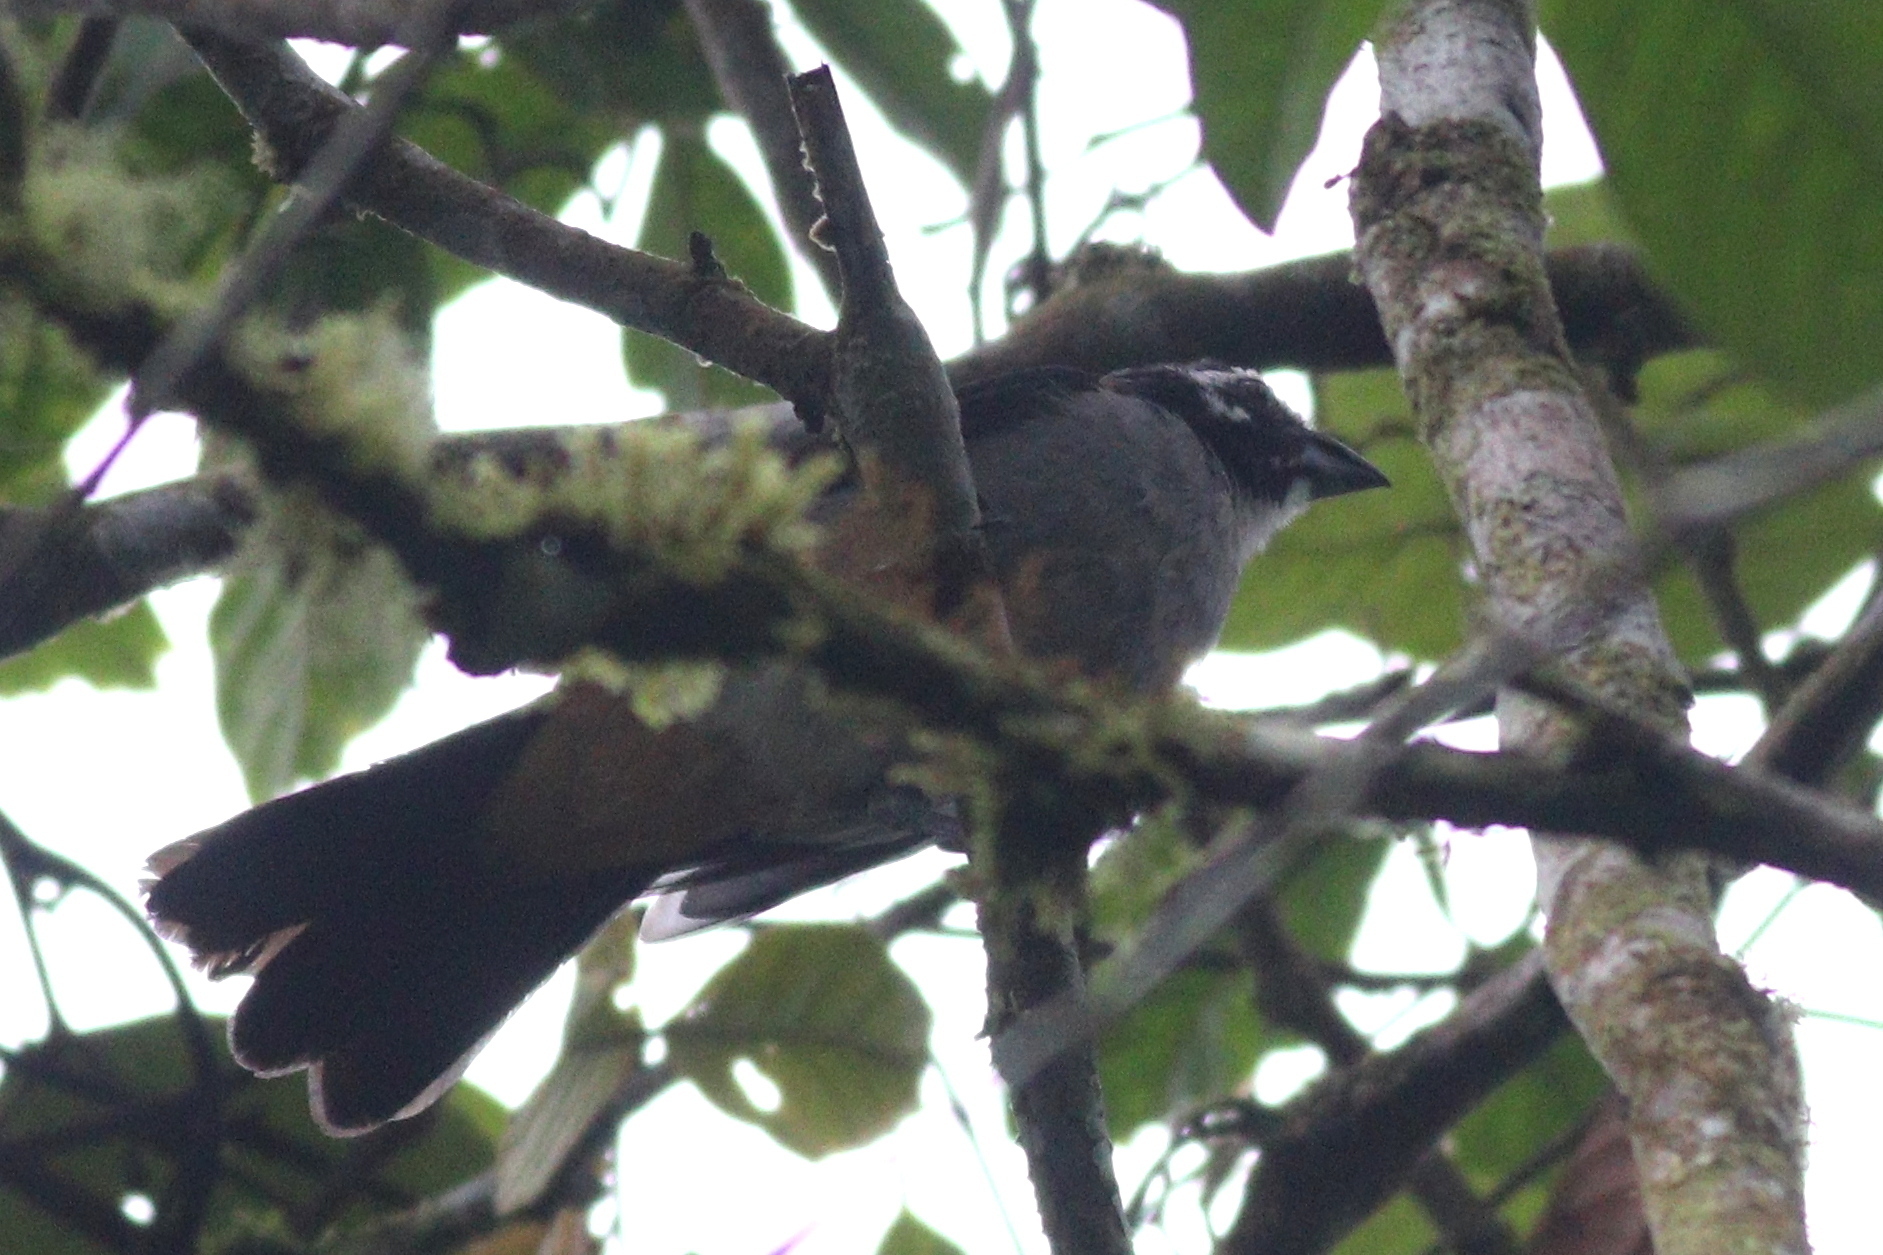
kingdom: Animalia
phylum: Chordata
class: Aves
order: Passeriformes
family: Thraupidae
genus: Saltator
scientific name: Saltator atripennis
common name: Black-winged saltator
